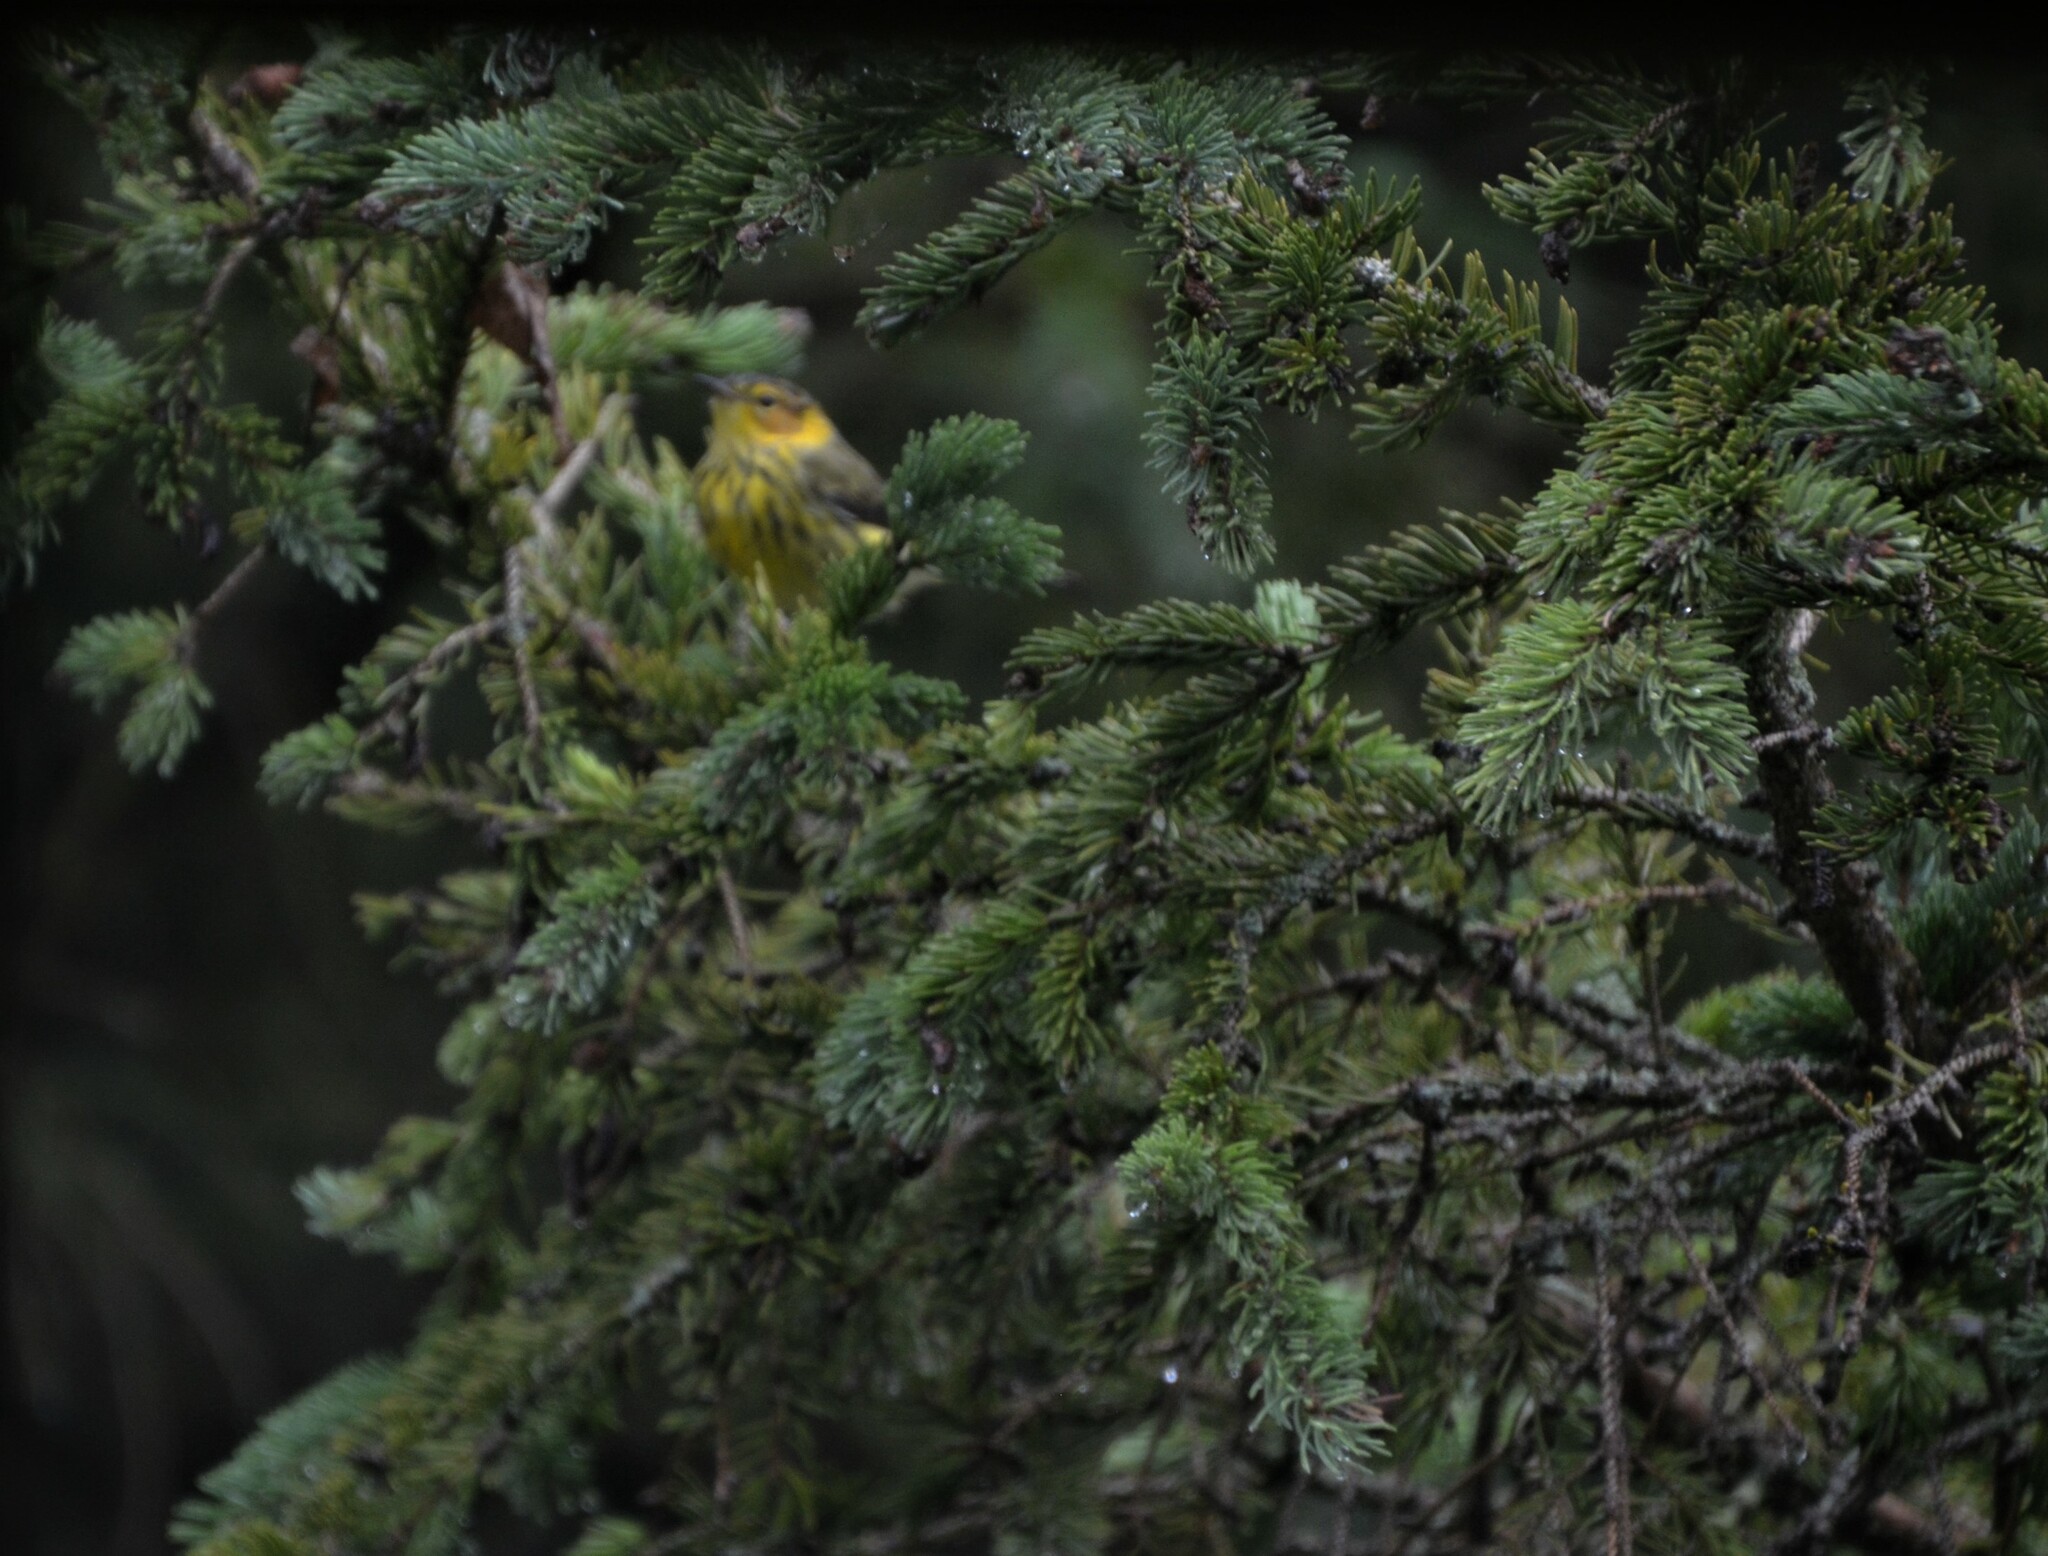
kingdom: Animalia
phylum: Chordata
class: Aves
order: Passeriformes
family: Parulidae
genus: Setophaga
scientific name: Setophaga tigrina
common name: Cape may warbler
